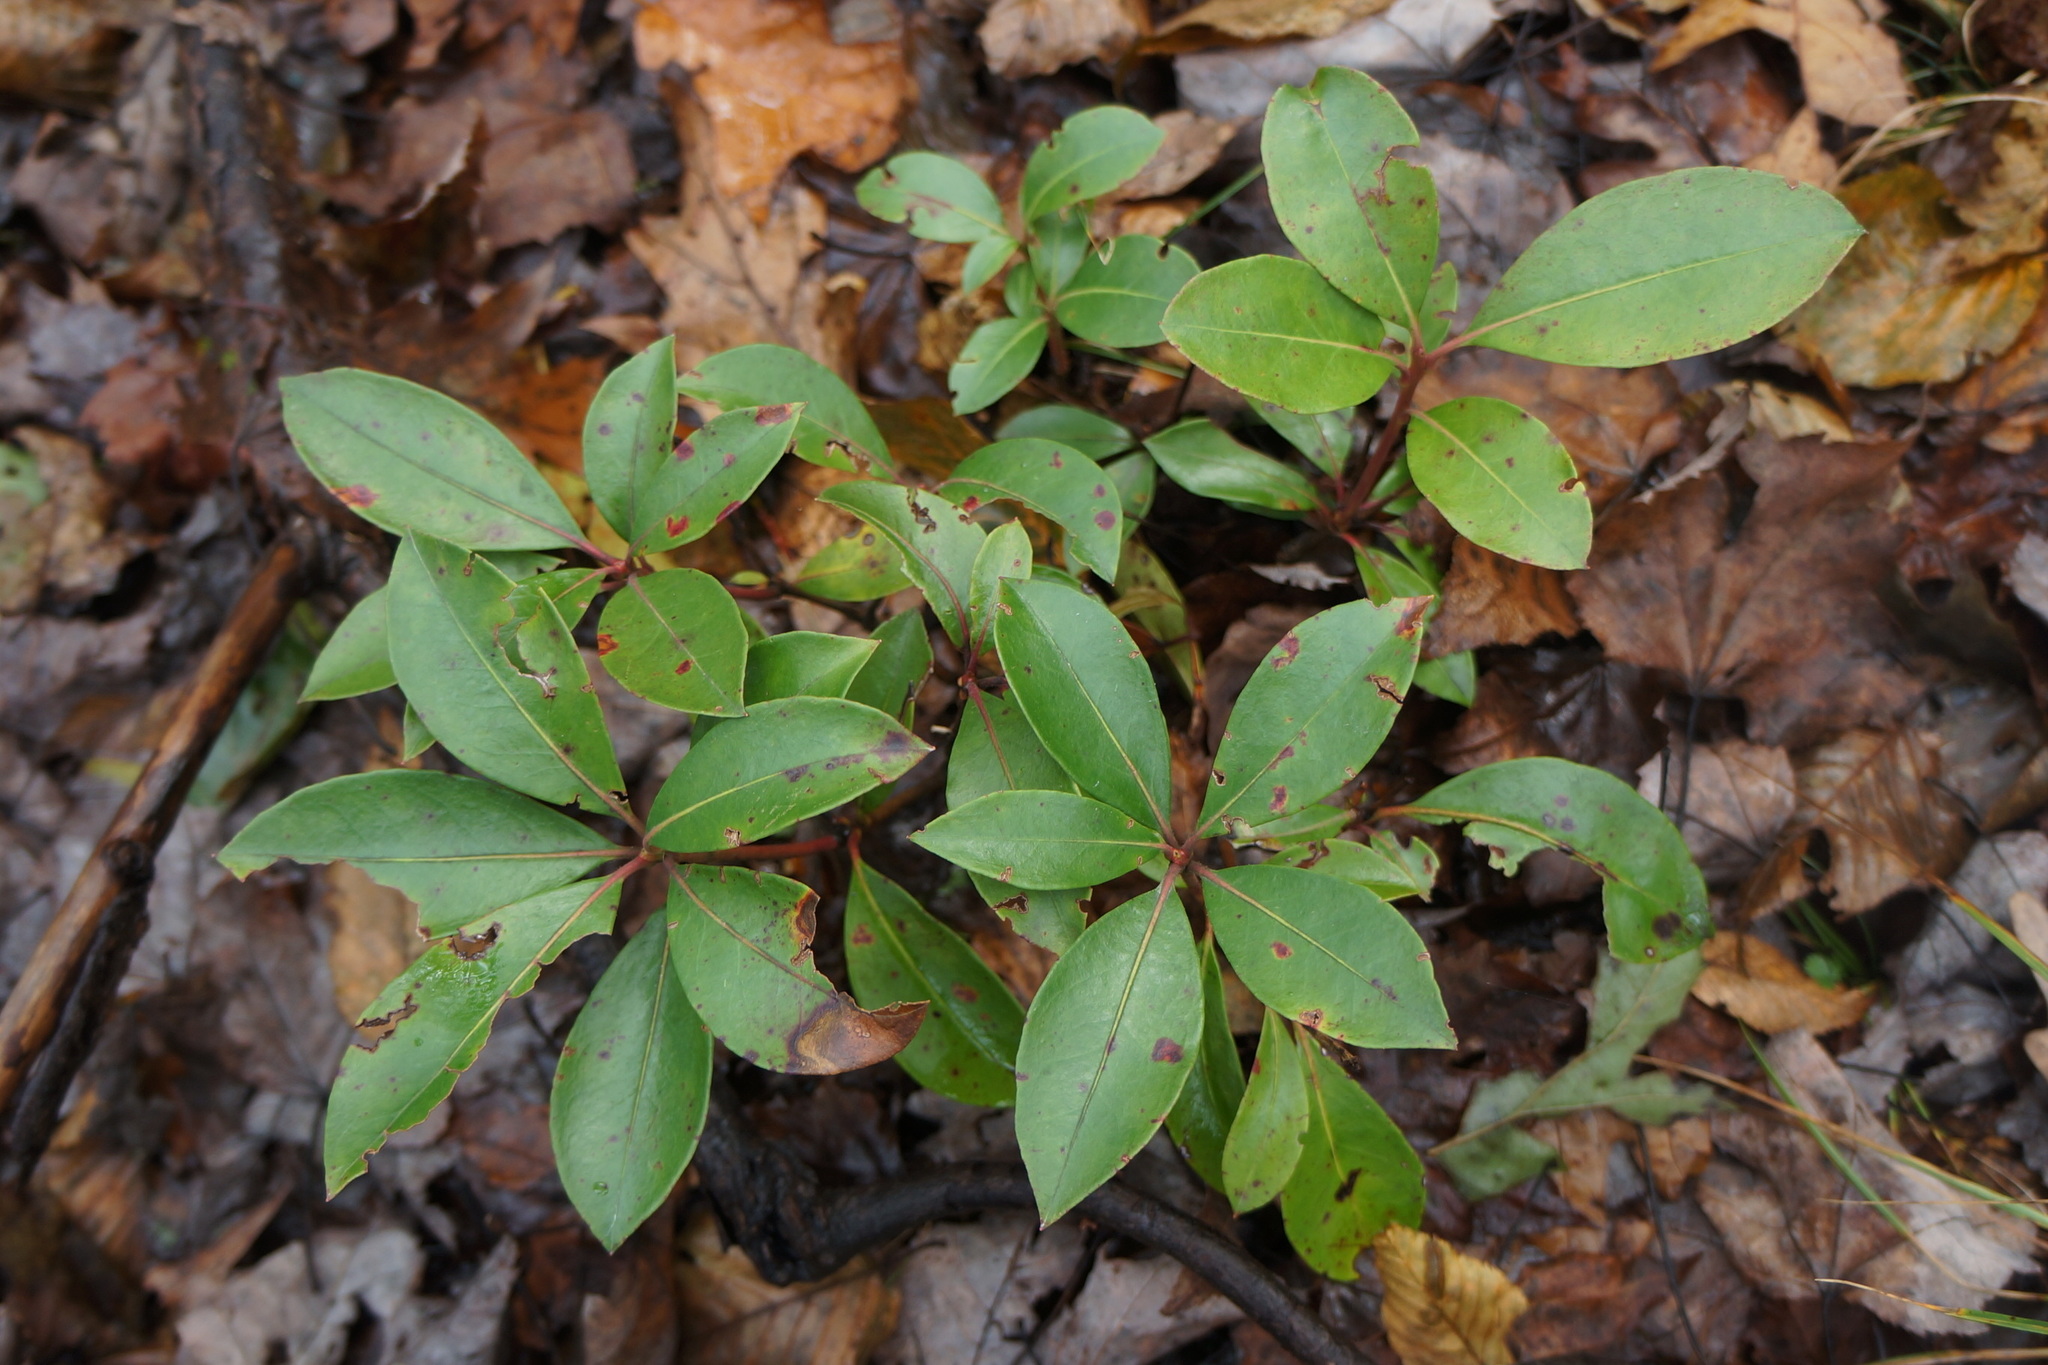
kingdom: Plantae
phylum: Tracheophyta
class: Magnoliopsida
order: Ericales
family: Ericaceae
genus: Kalmia
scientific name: Kalmia latifolia
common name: Mountain-laurel
